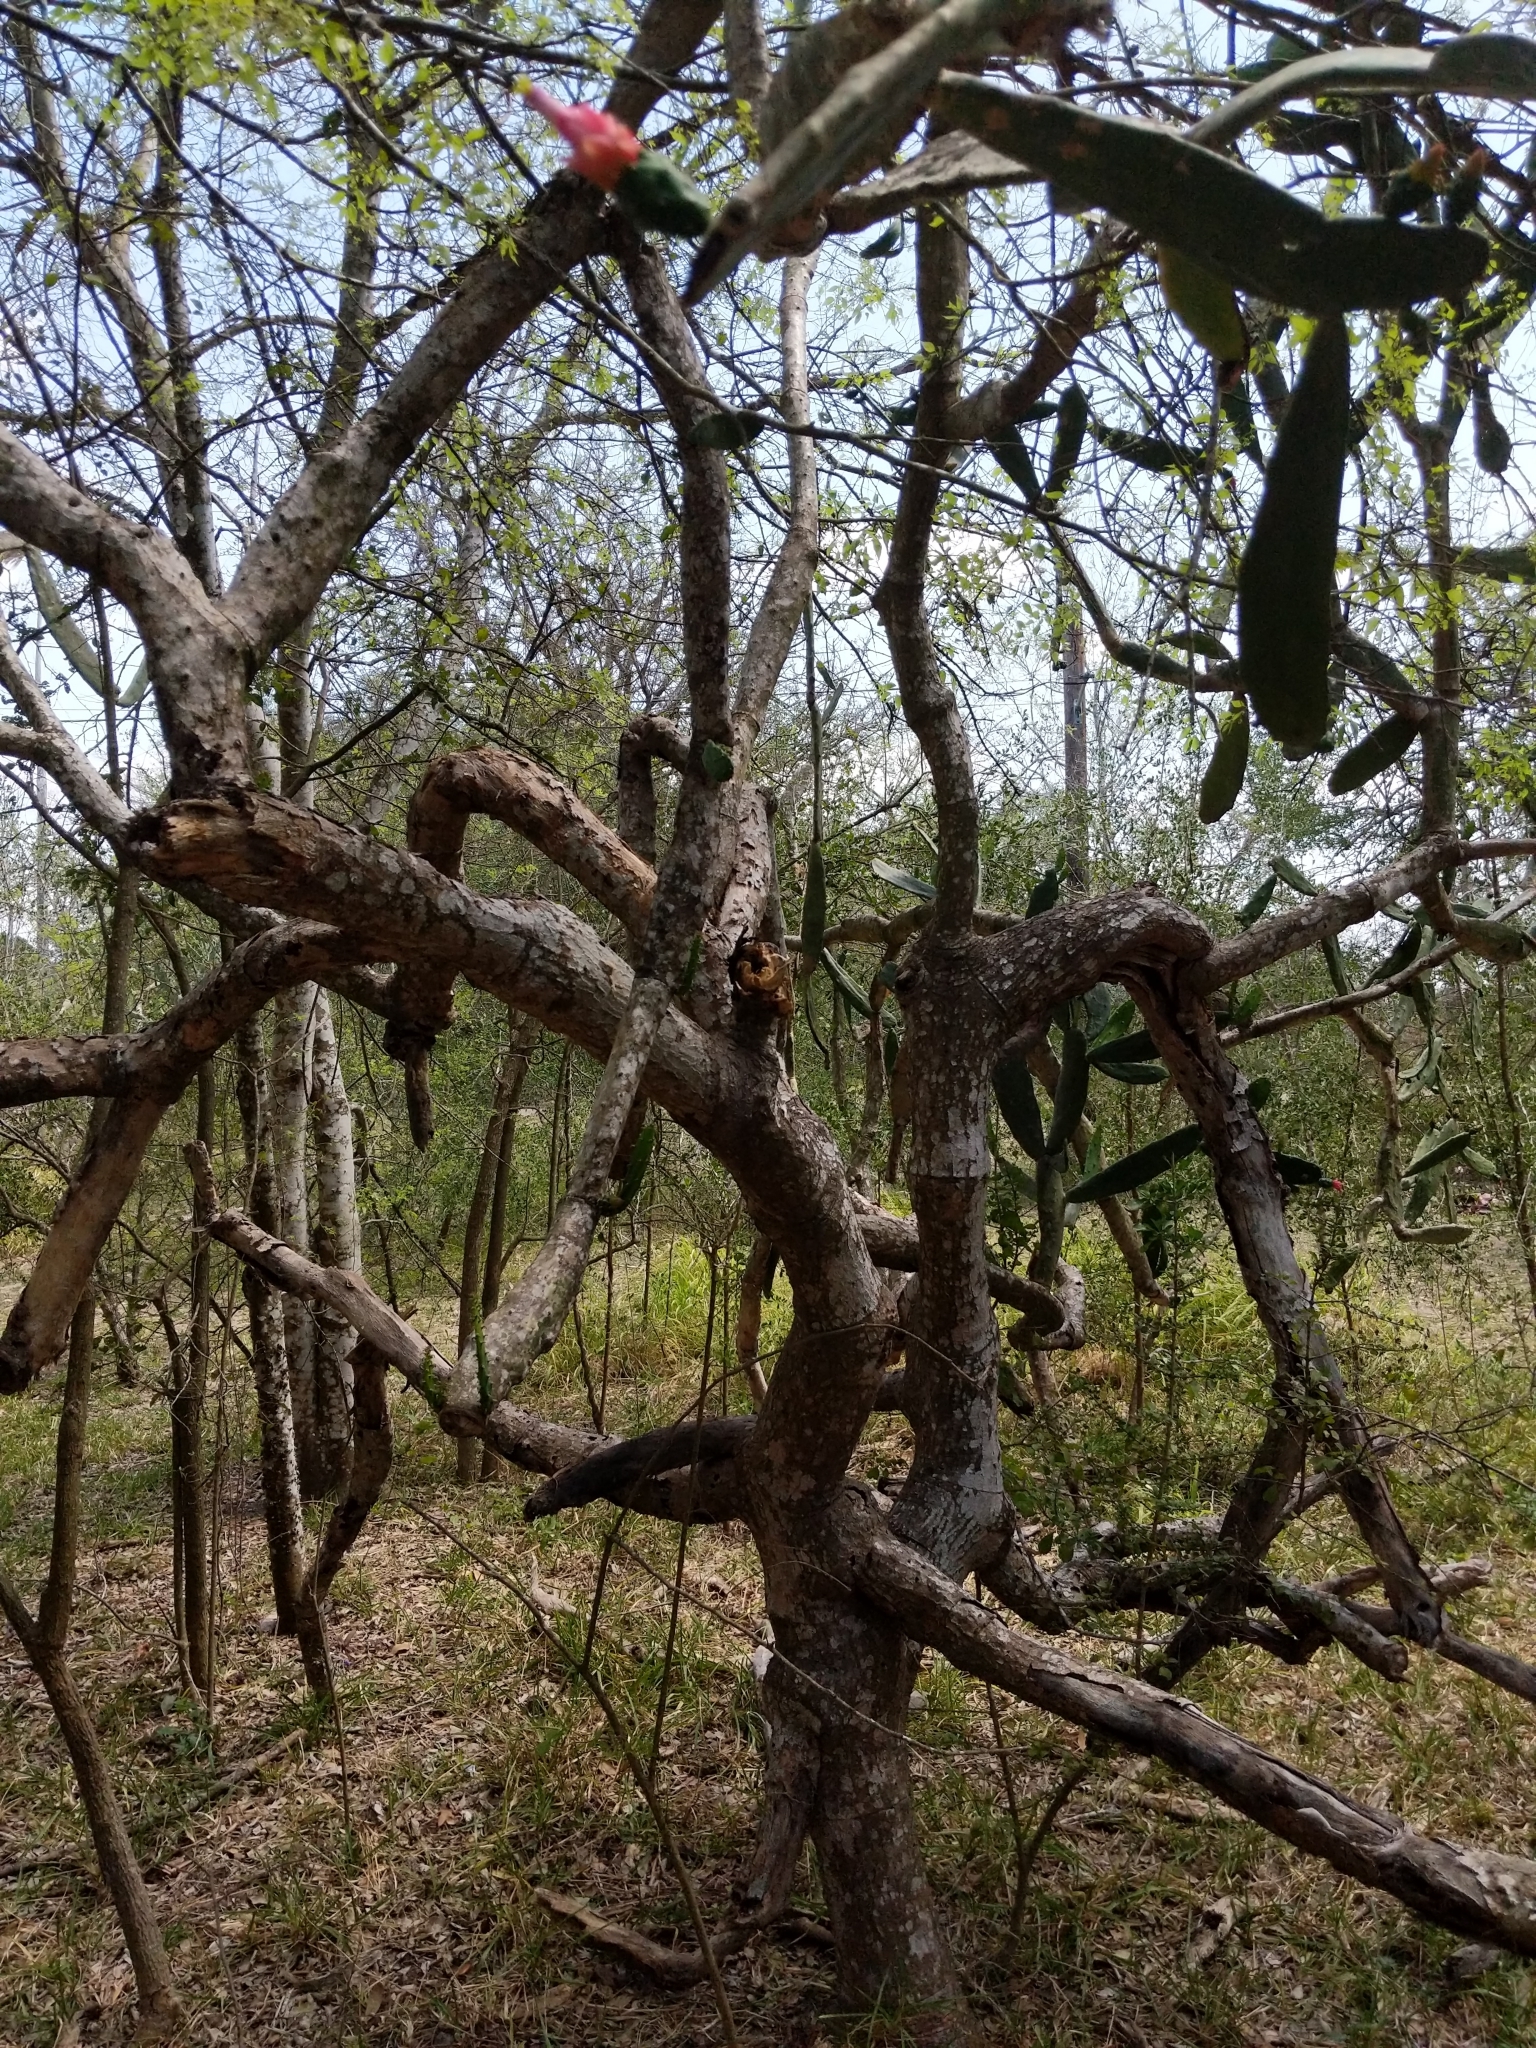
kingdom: Plantae
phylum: Tracheophyta
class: Magnoliopsida
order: Caryophyllales
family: Cactaceae
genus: Opuntia
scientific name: Opuntia cochenillifera
